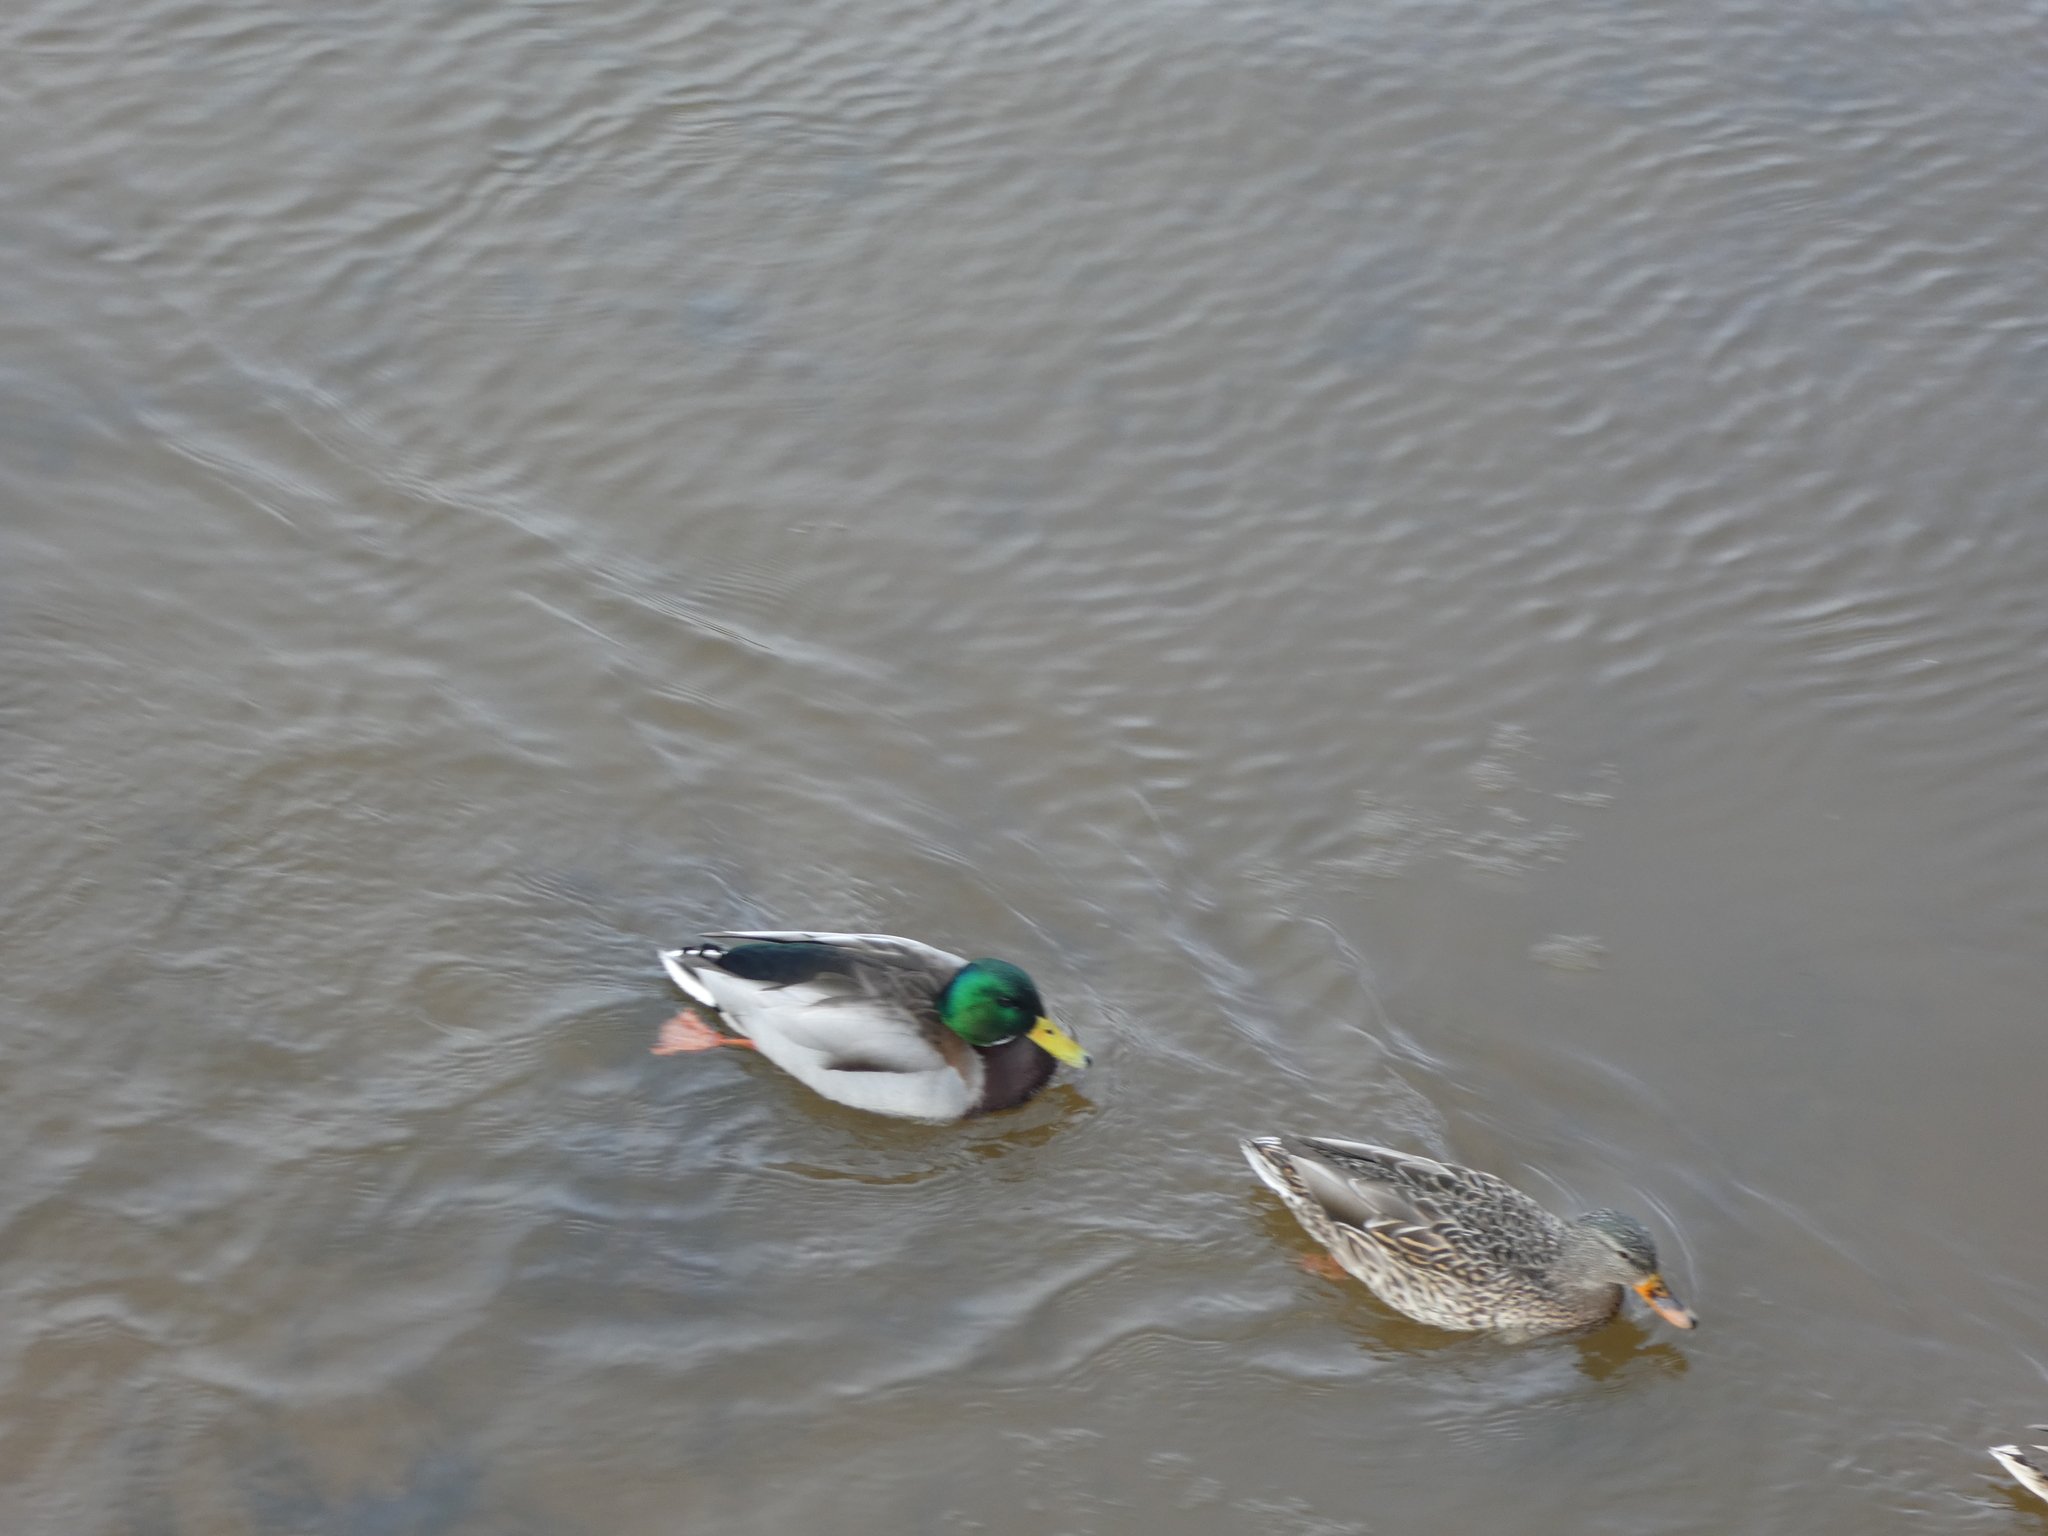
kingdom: Animalia
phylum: Chordata
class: Aves
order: Anseriformes
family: Anatidae
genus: Anas
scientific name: Anas platyrhynchos
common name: Mallard
